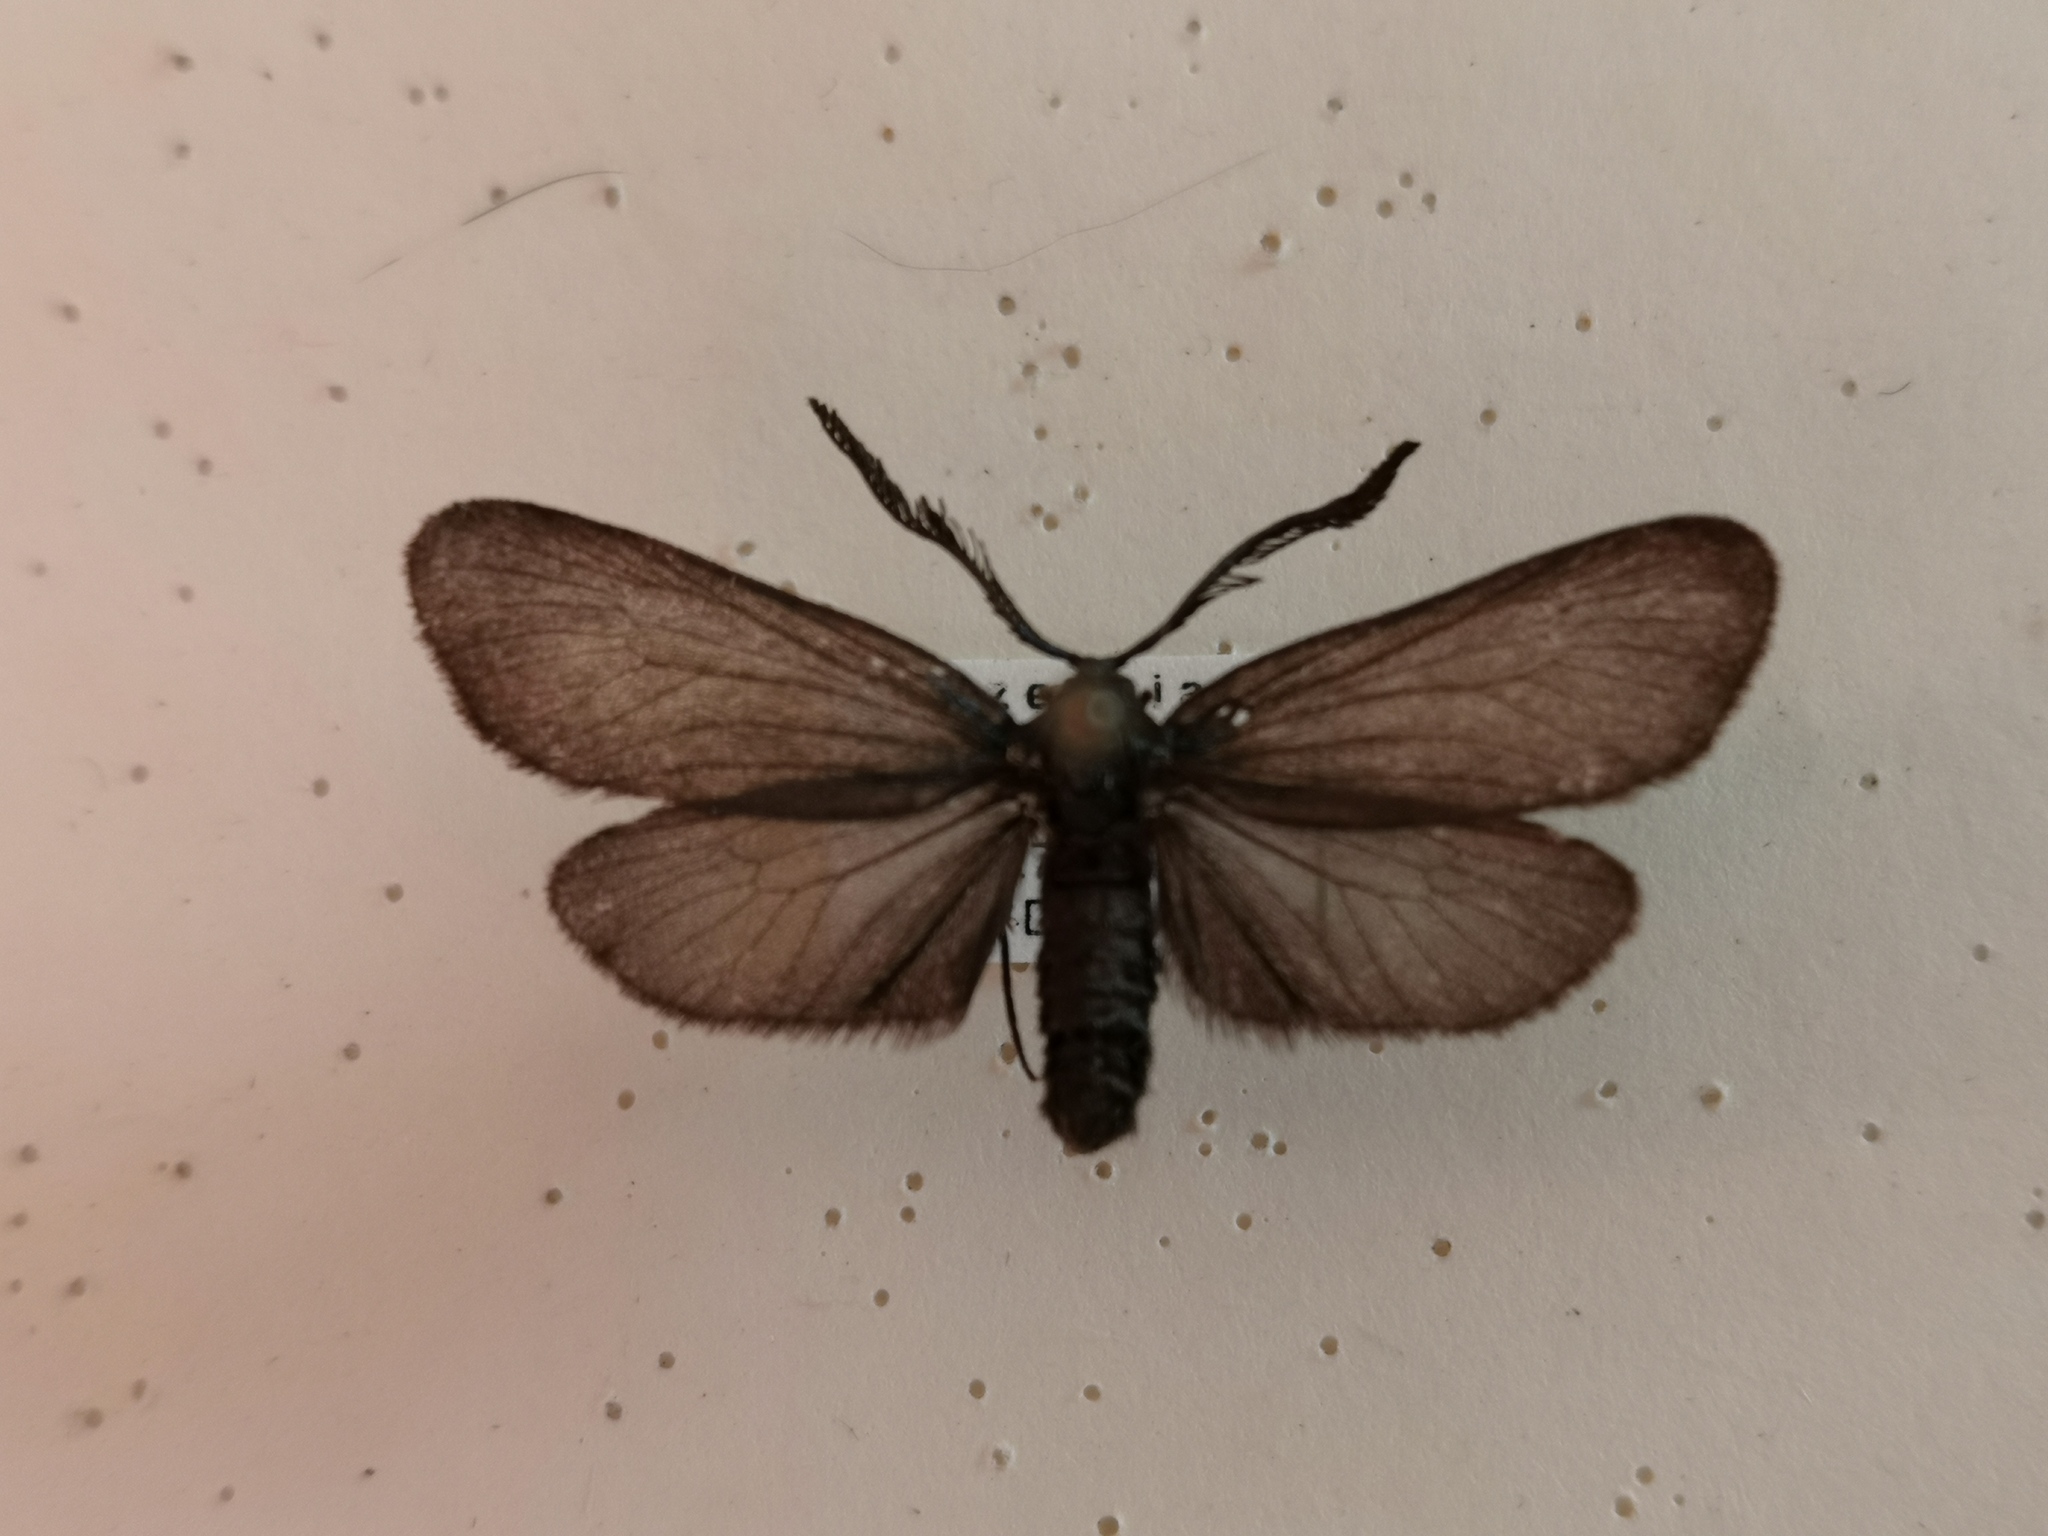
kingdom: Animalia
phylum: Arthropoda
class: Insecta
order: Lepidoptera
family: Zygaenidae
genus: Rhagades
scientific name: Rhagades pruni
